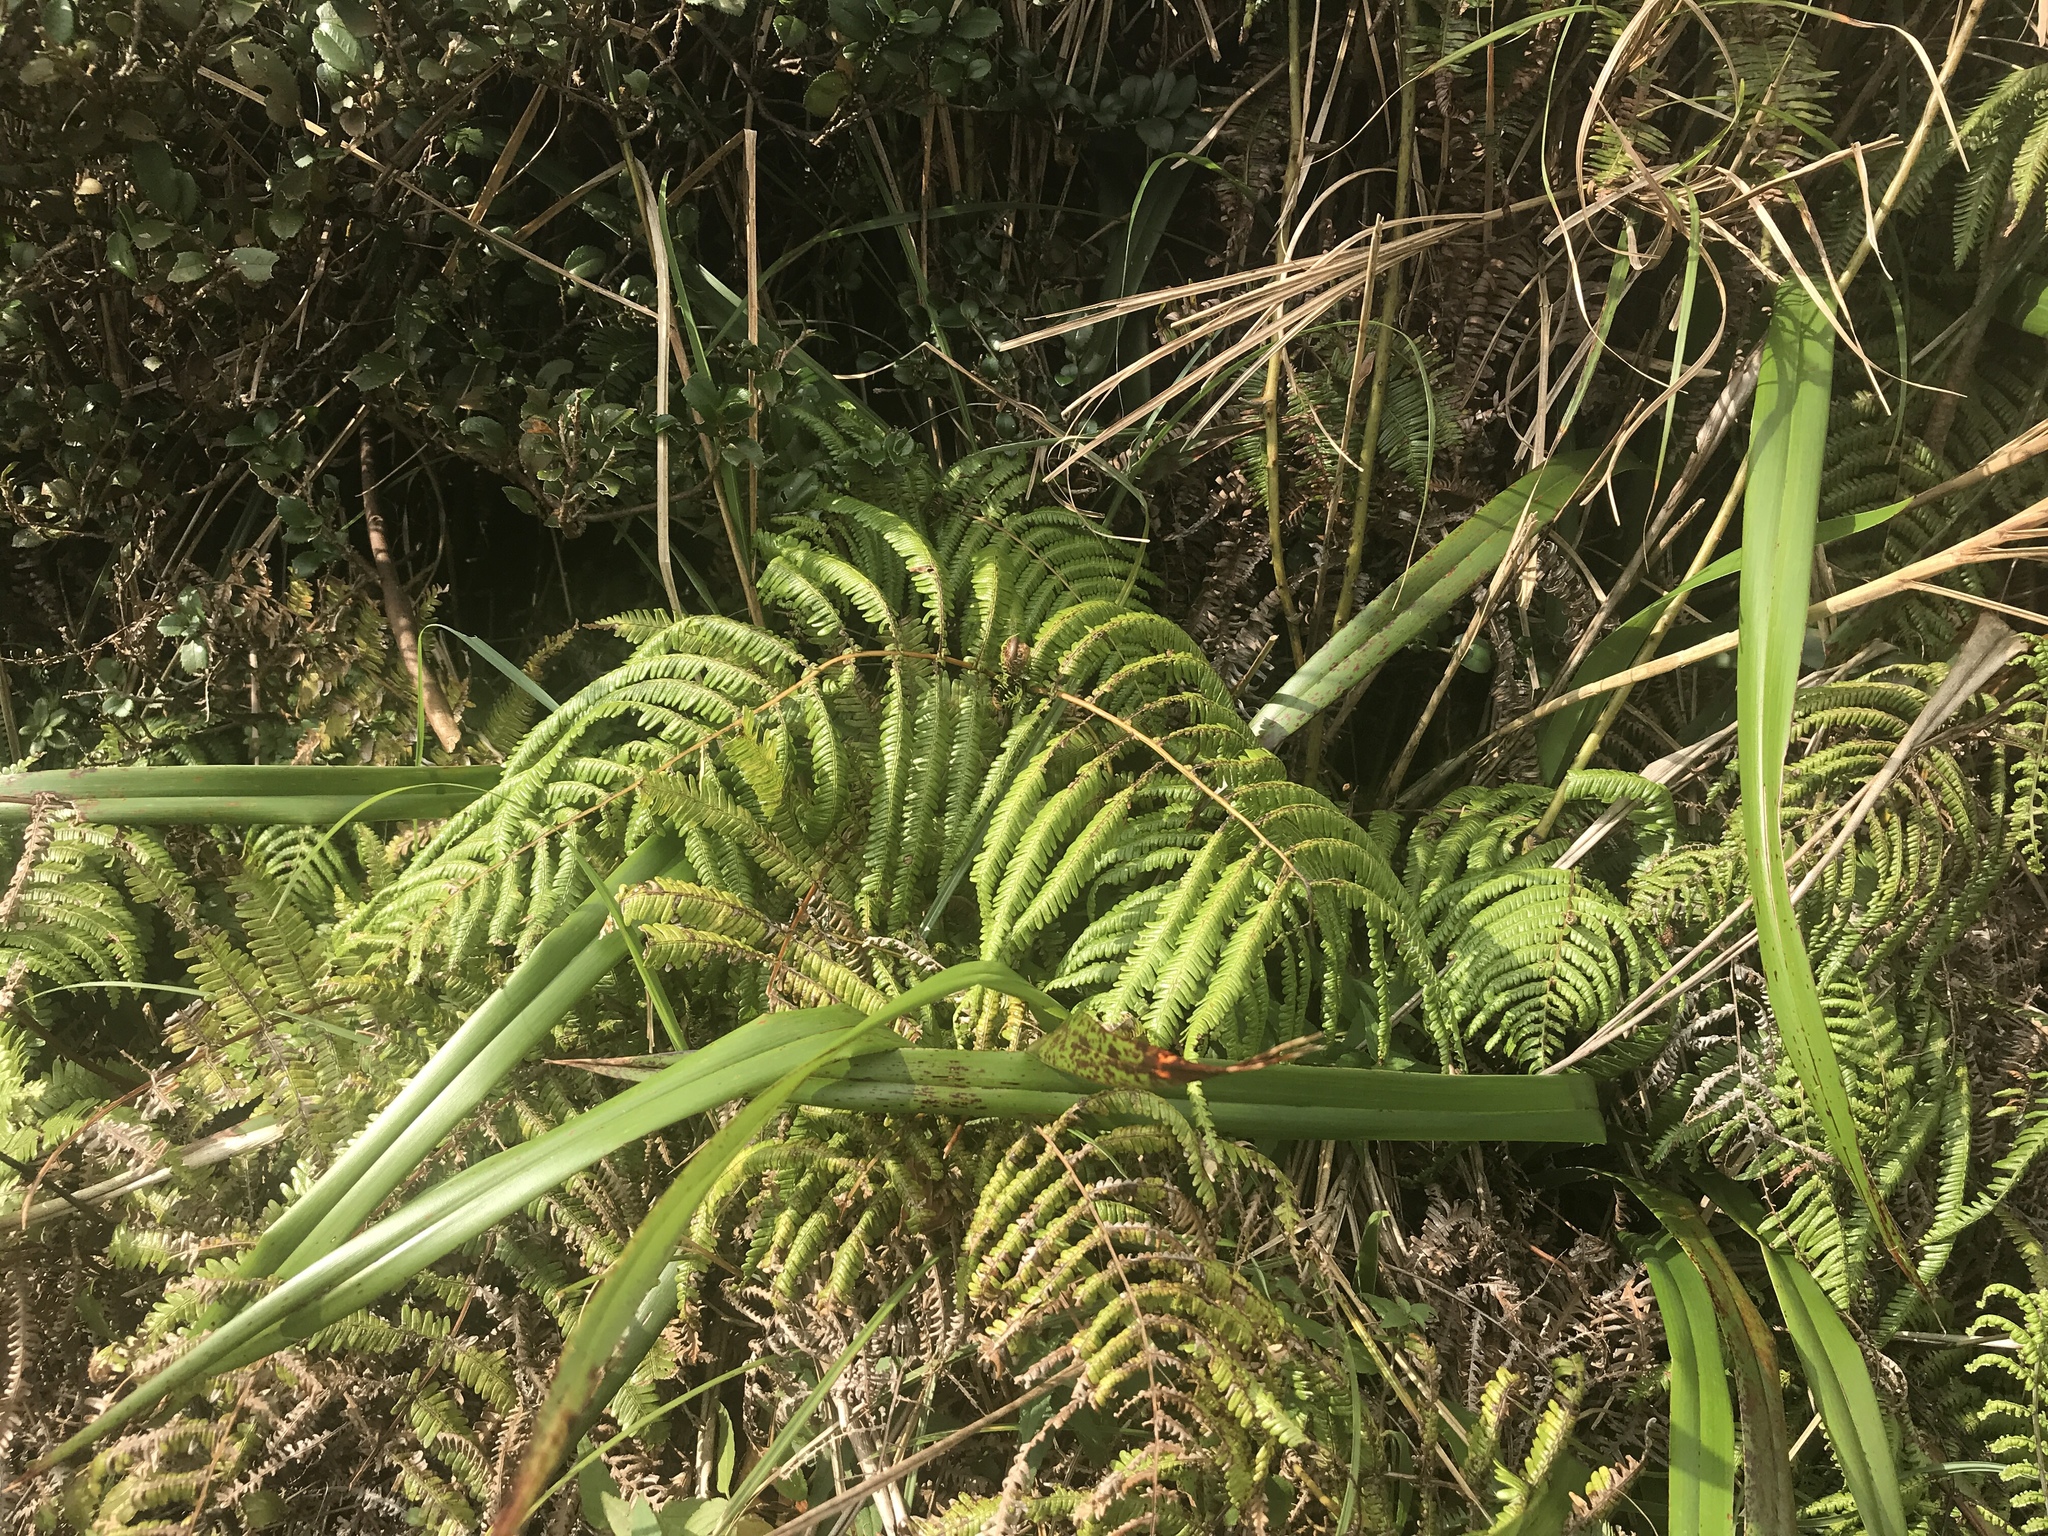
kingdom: Plantae
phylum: Tracheophyta
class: Polypodiopsida
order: Gleicheniales
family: Gleicheniaceae
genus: Diplopterygium
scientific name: Diplopterygium glaucum
